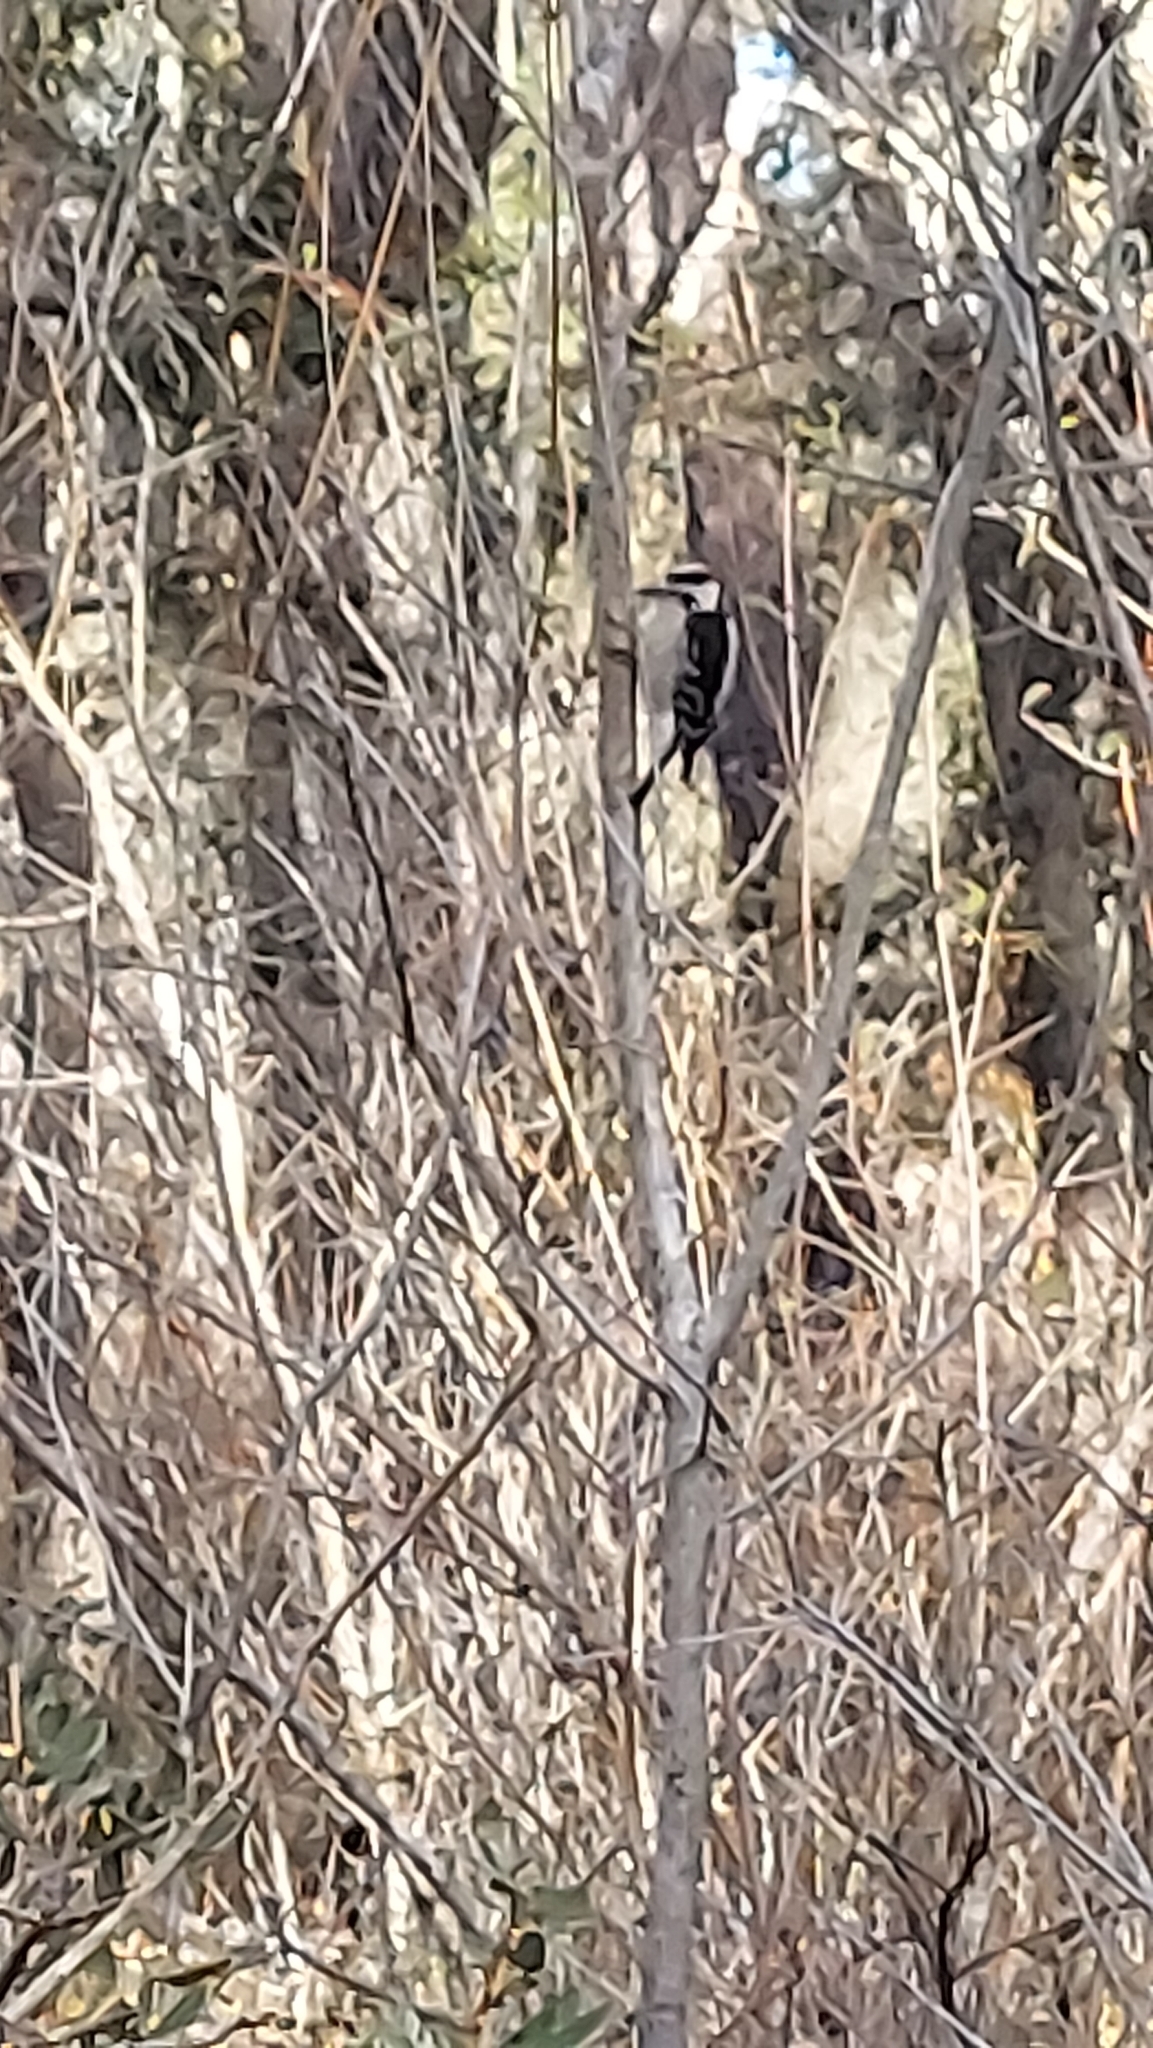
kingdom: Animalia
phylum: Chordata
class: Aves
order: Piciformes
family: Picidae
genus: Dryobates
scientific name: Dryobates pubescens
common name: Downy woodpecker
